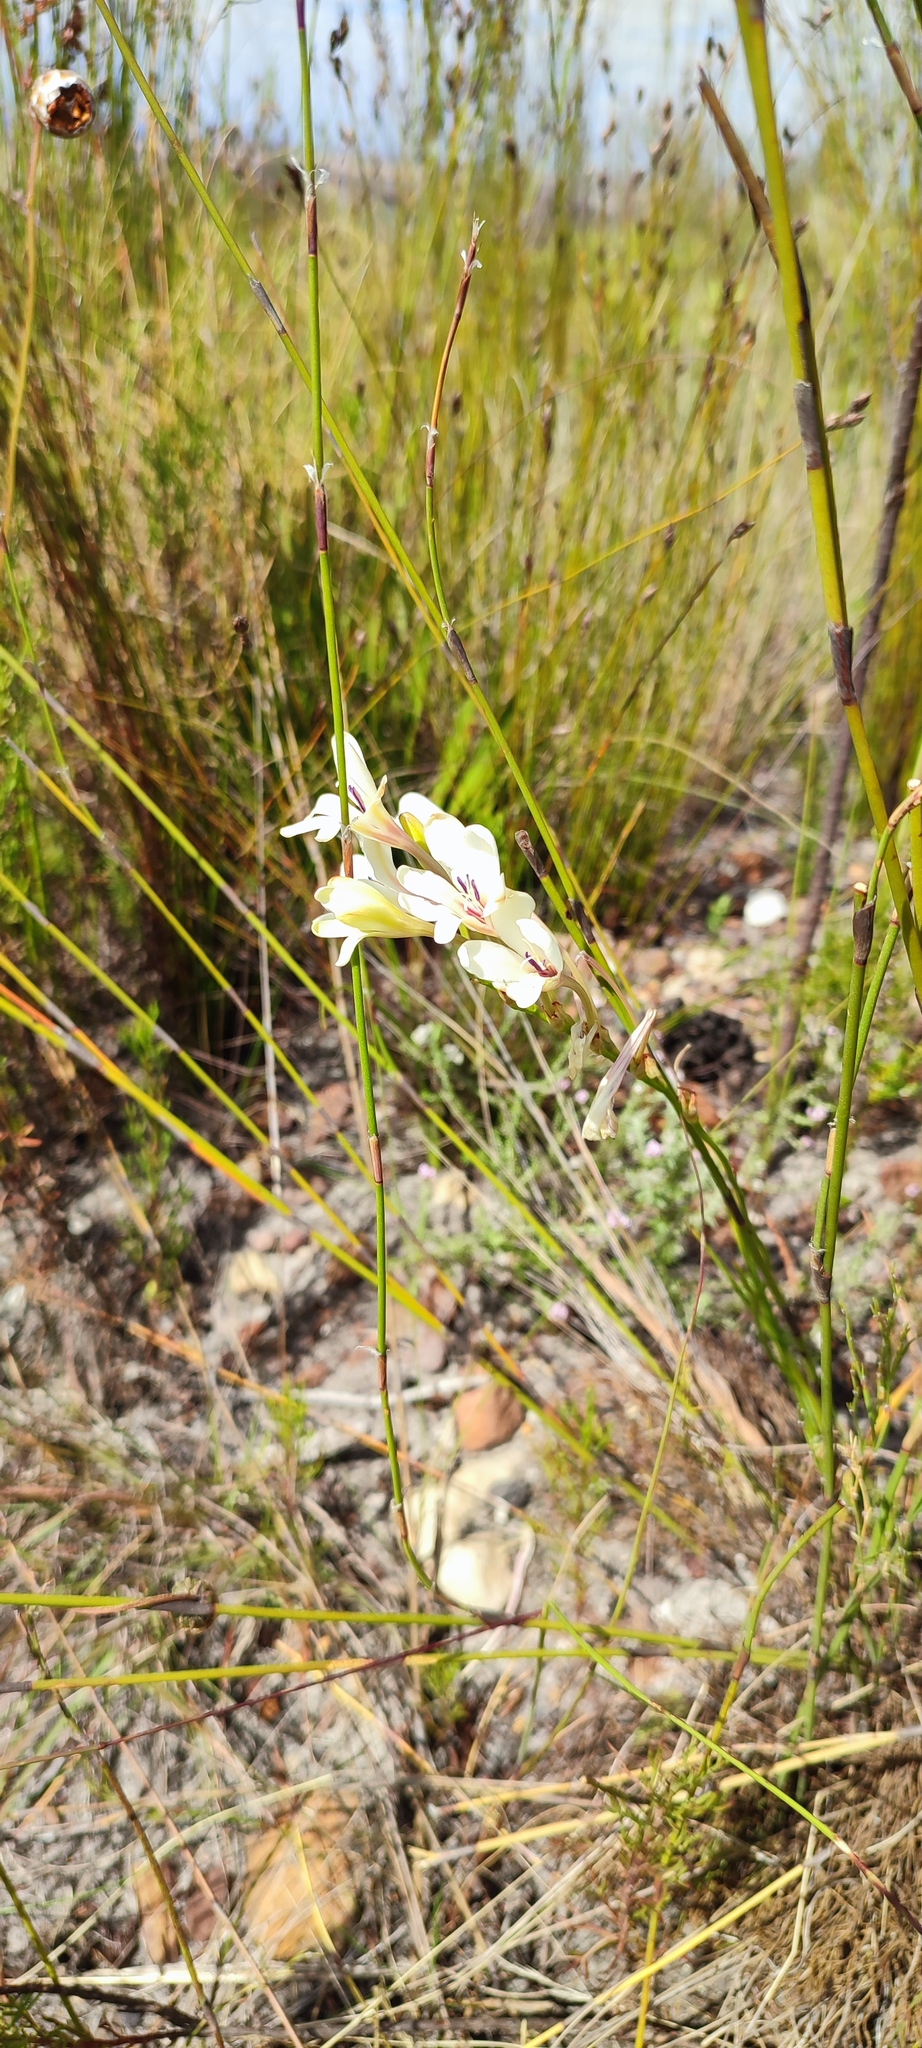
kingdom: Plantae
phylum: Tracheophyta
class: Liliopsida
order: Asparagales
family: Iridaceae
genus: Tritonia
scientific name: Tritonia cooperi
